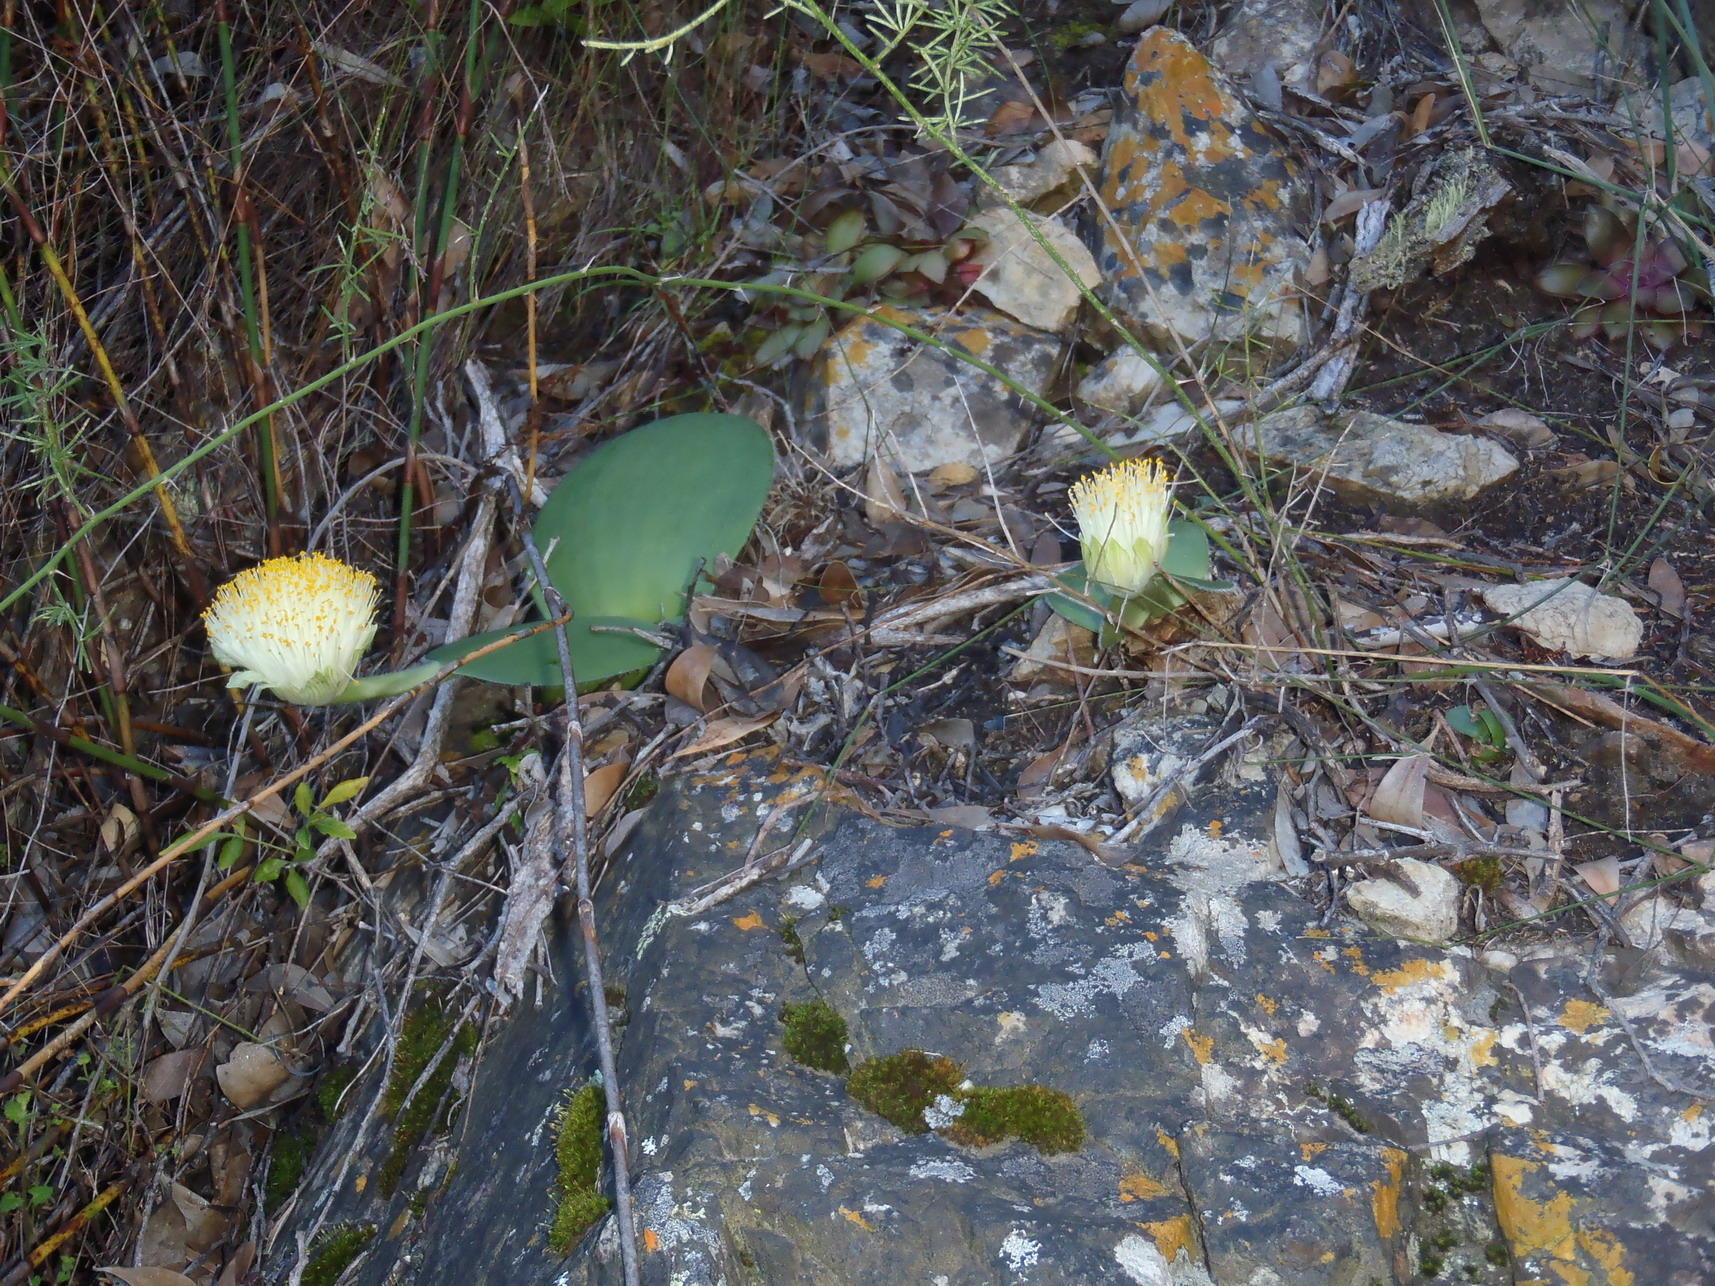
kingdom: Plantae
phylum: Tracheophyta
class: Liliopsida
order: Asparagales
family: Amaryllidaceae
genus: Haemanthus
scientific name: Haemanthus albiflos
